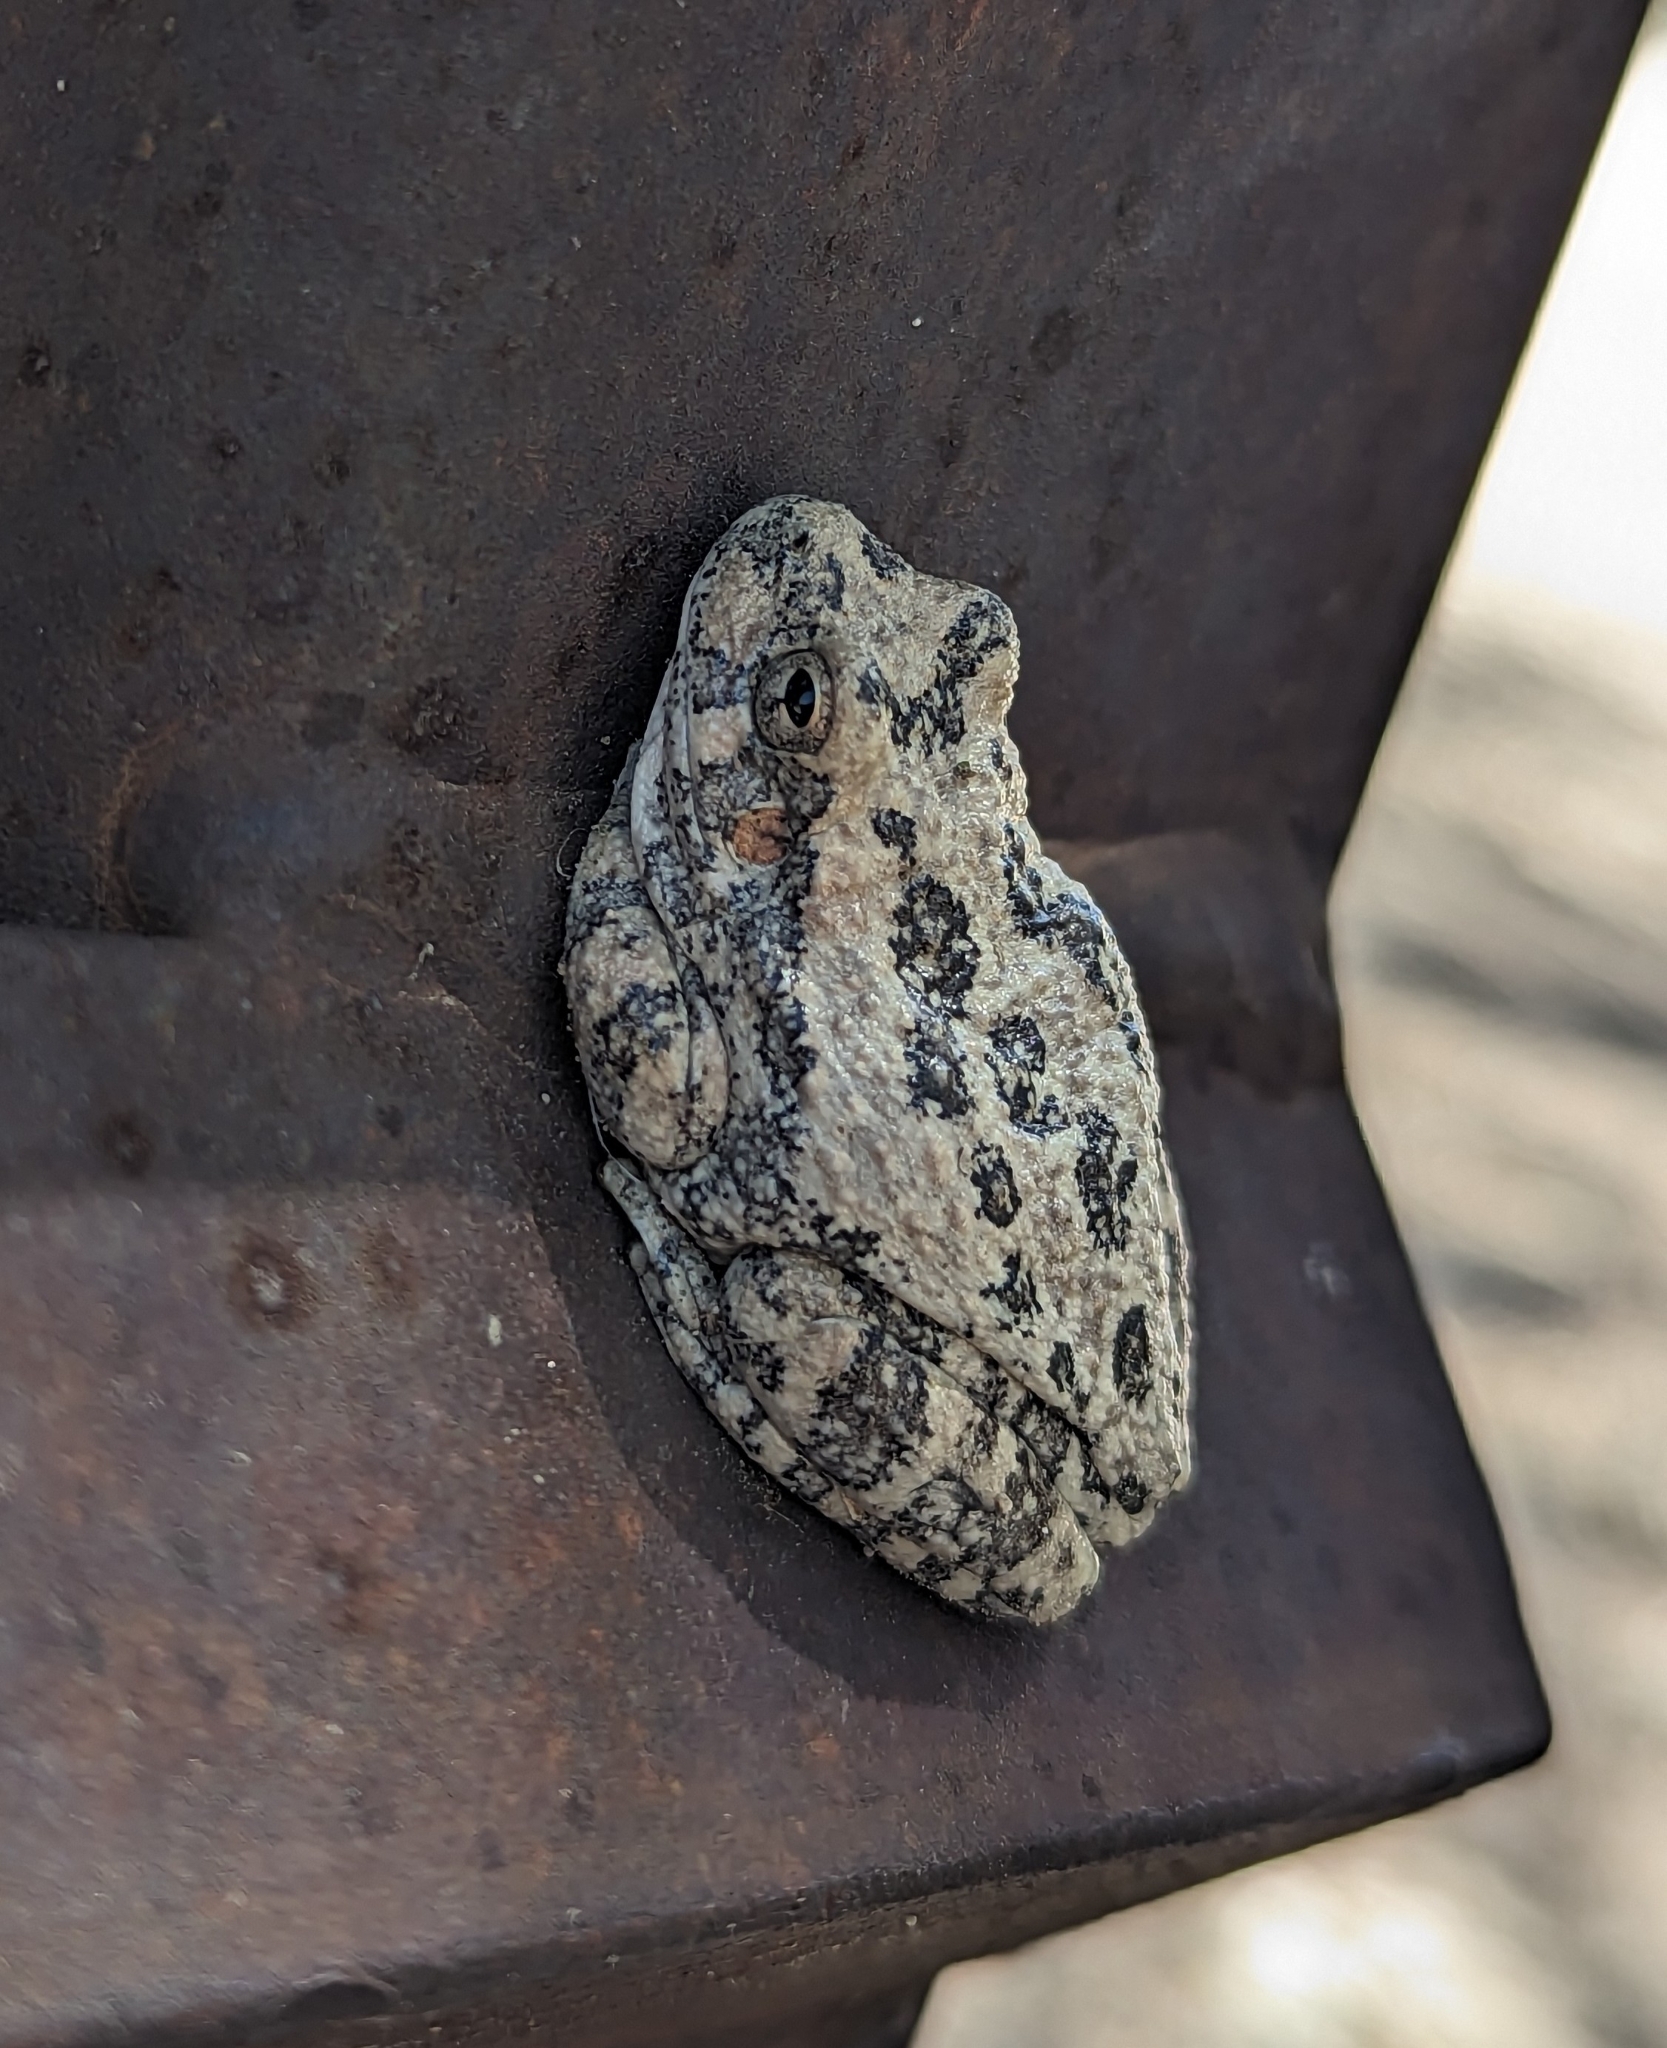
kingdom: Animalia
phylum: Chordata
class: Amphibia
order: Anura
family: Hylidae
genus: Dryophytes
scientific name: Dryophytes arenicolor
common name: Canyon treefrog
